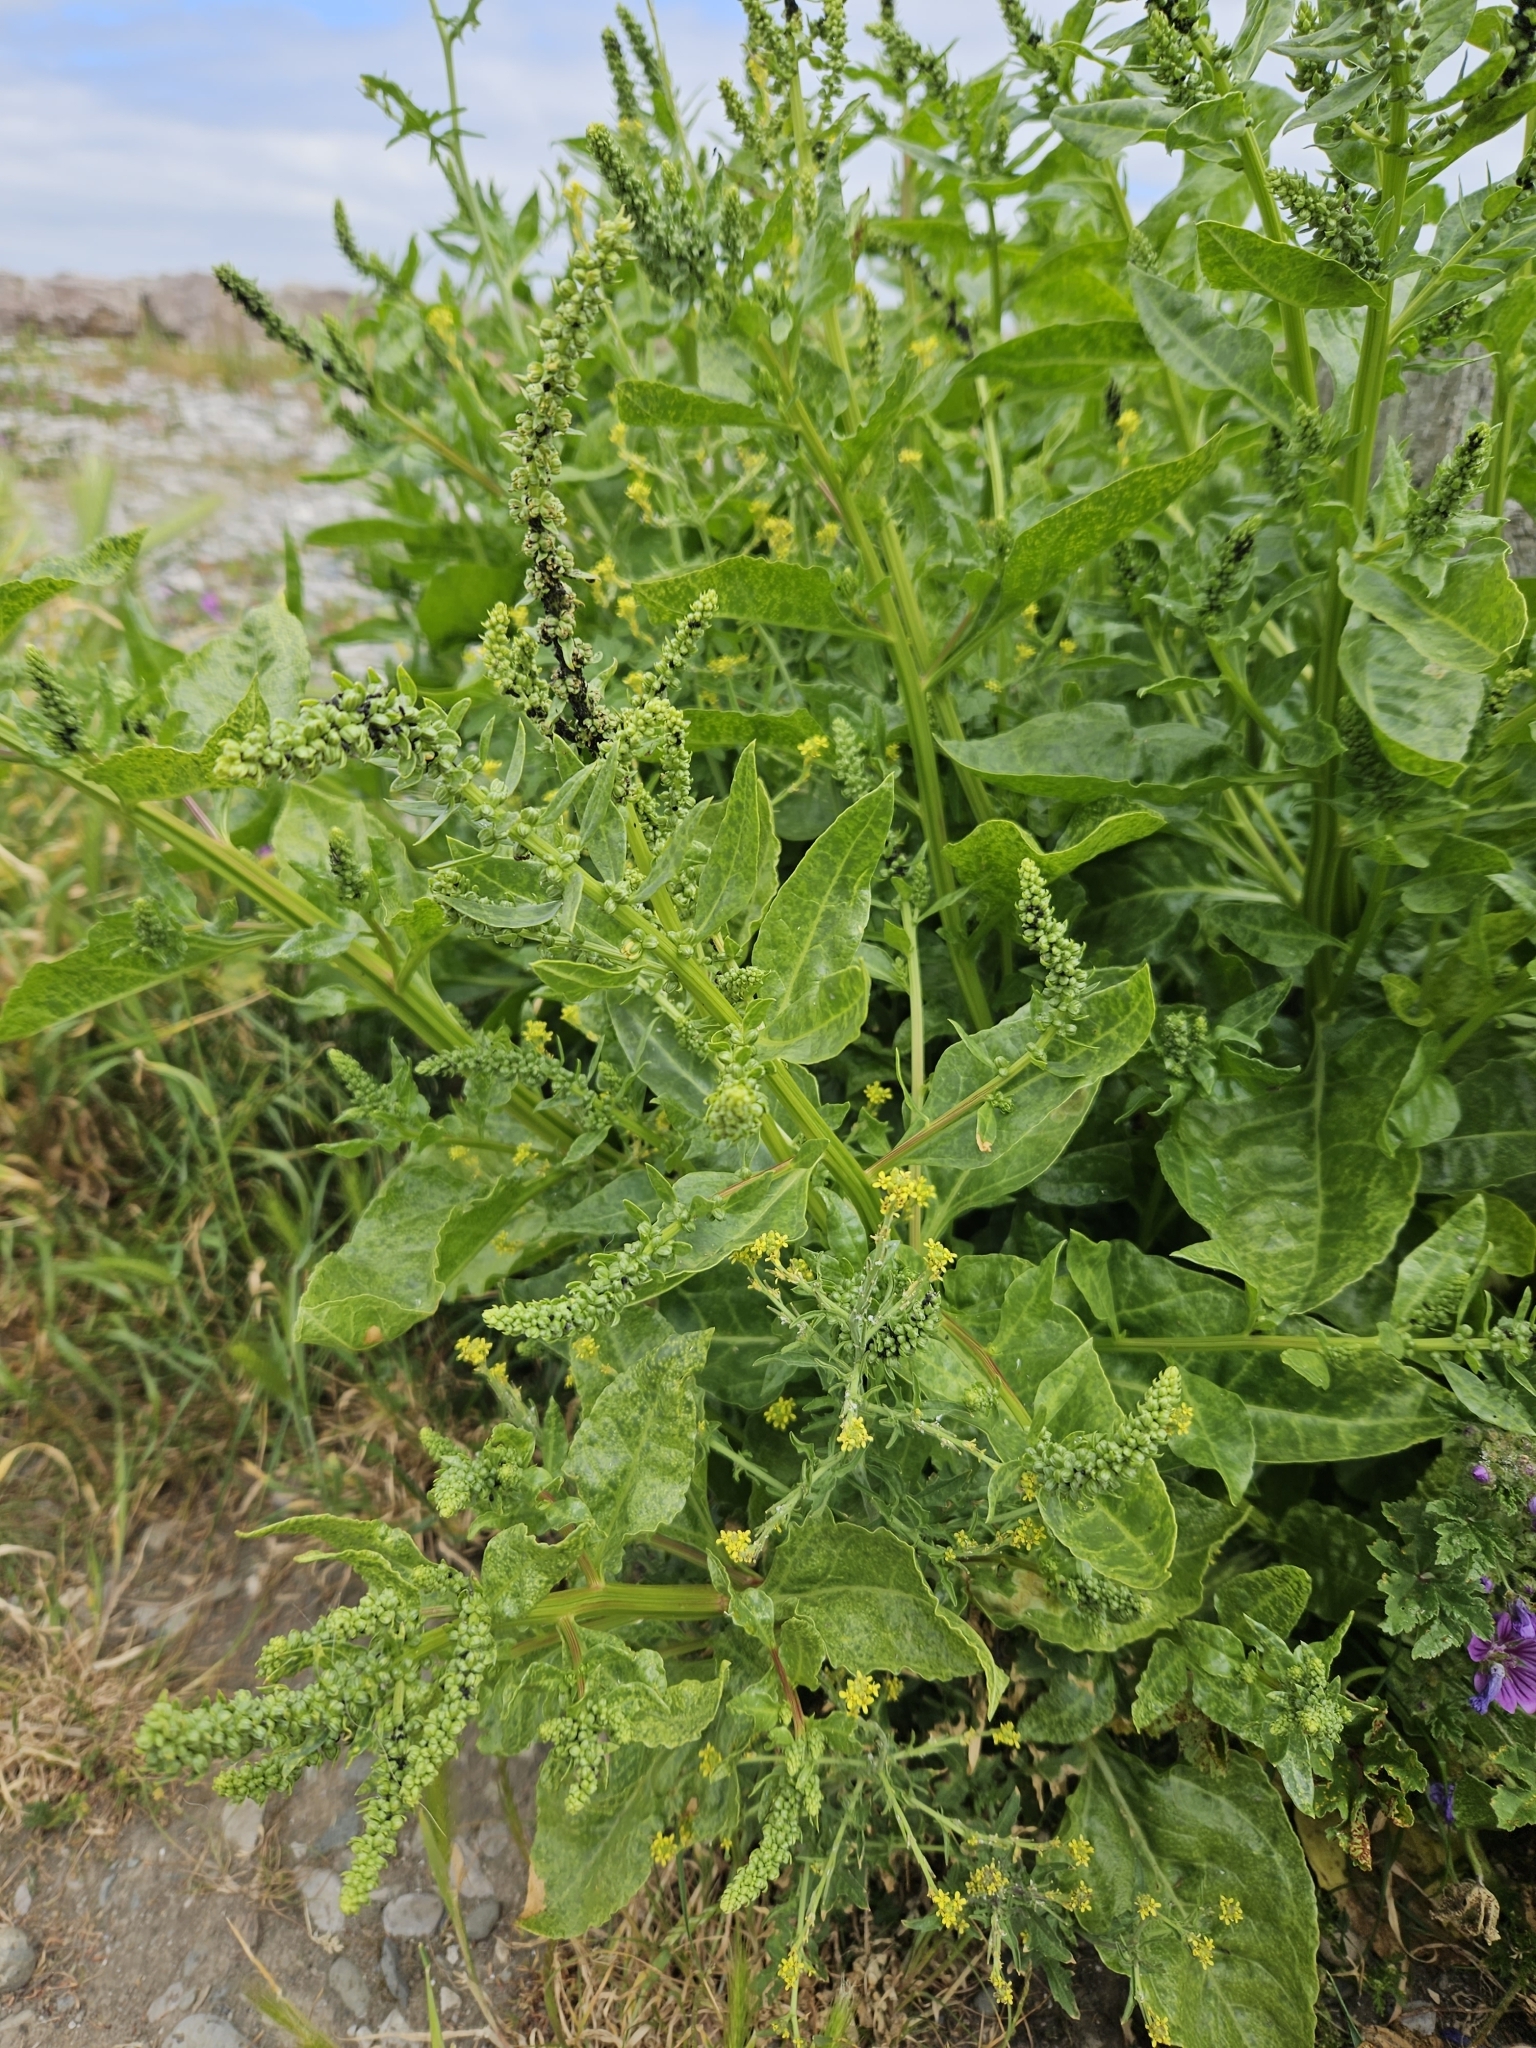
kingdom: Plantae
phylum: Tracheophyta
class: Magnoliopsida
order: Caryophyllales
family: Amaranthaceae
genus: Beta
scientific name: Beta vulgaris
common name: Beet
